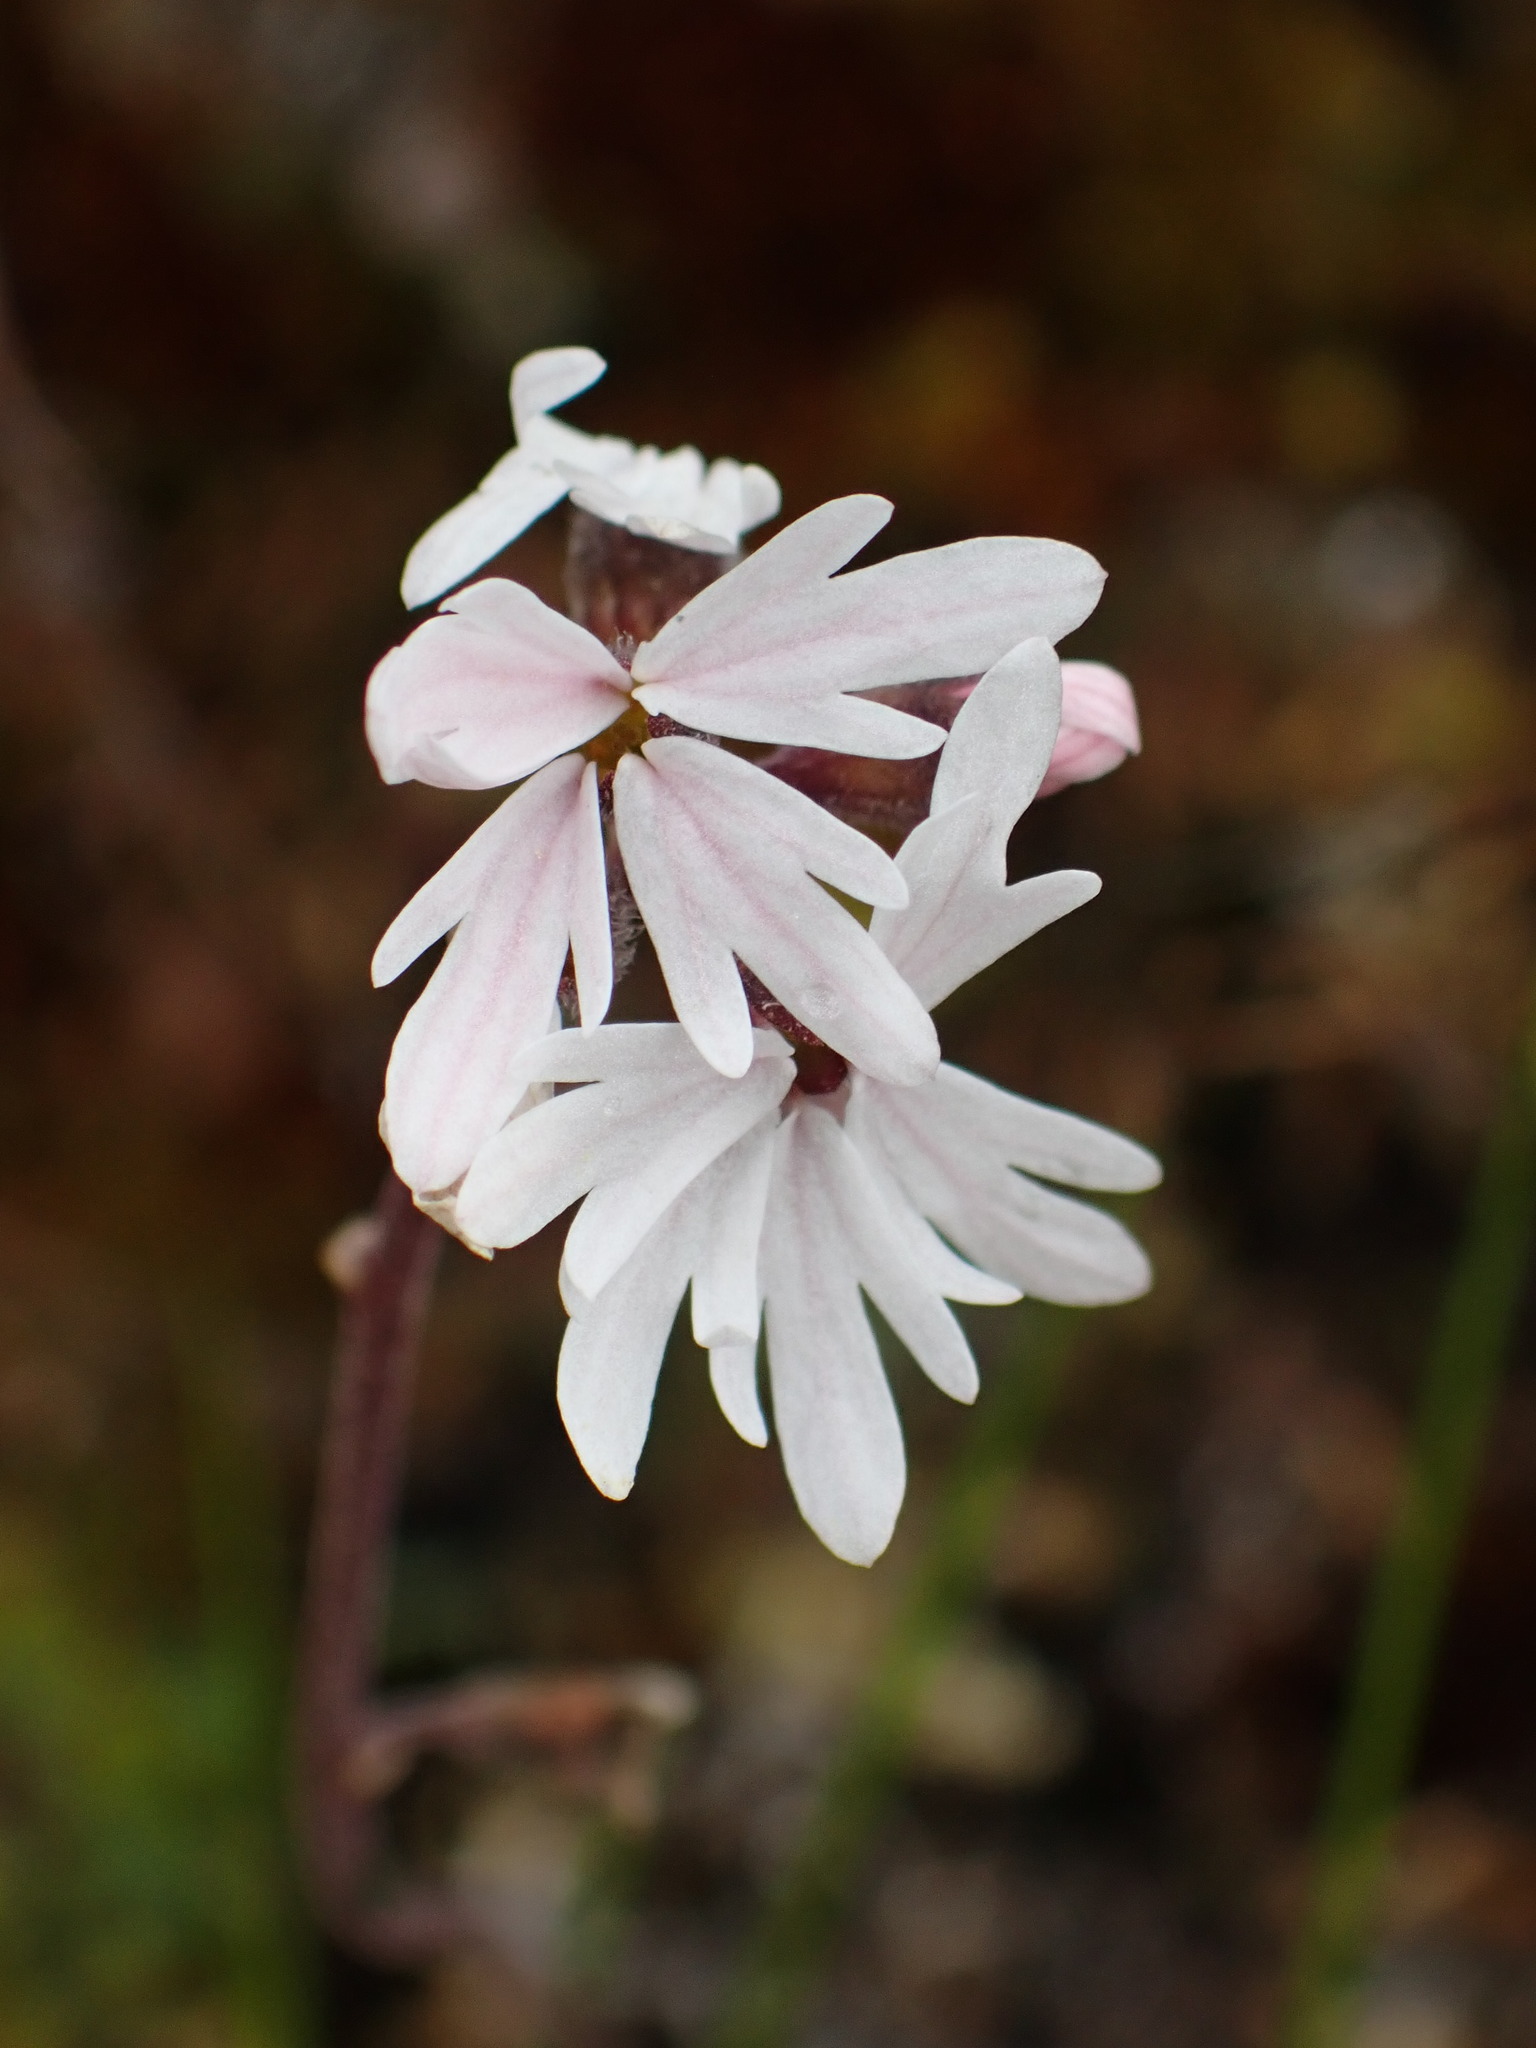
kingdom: Plantae
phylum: Tracheophyta
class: Magnoliopsida
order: Saxifragales
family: Saxifragaceae
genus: Lithophragma
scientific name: Lithophragma parviflorum
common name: Small-flowered fringe-cup
